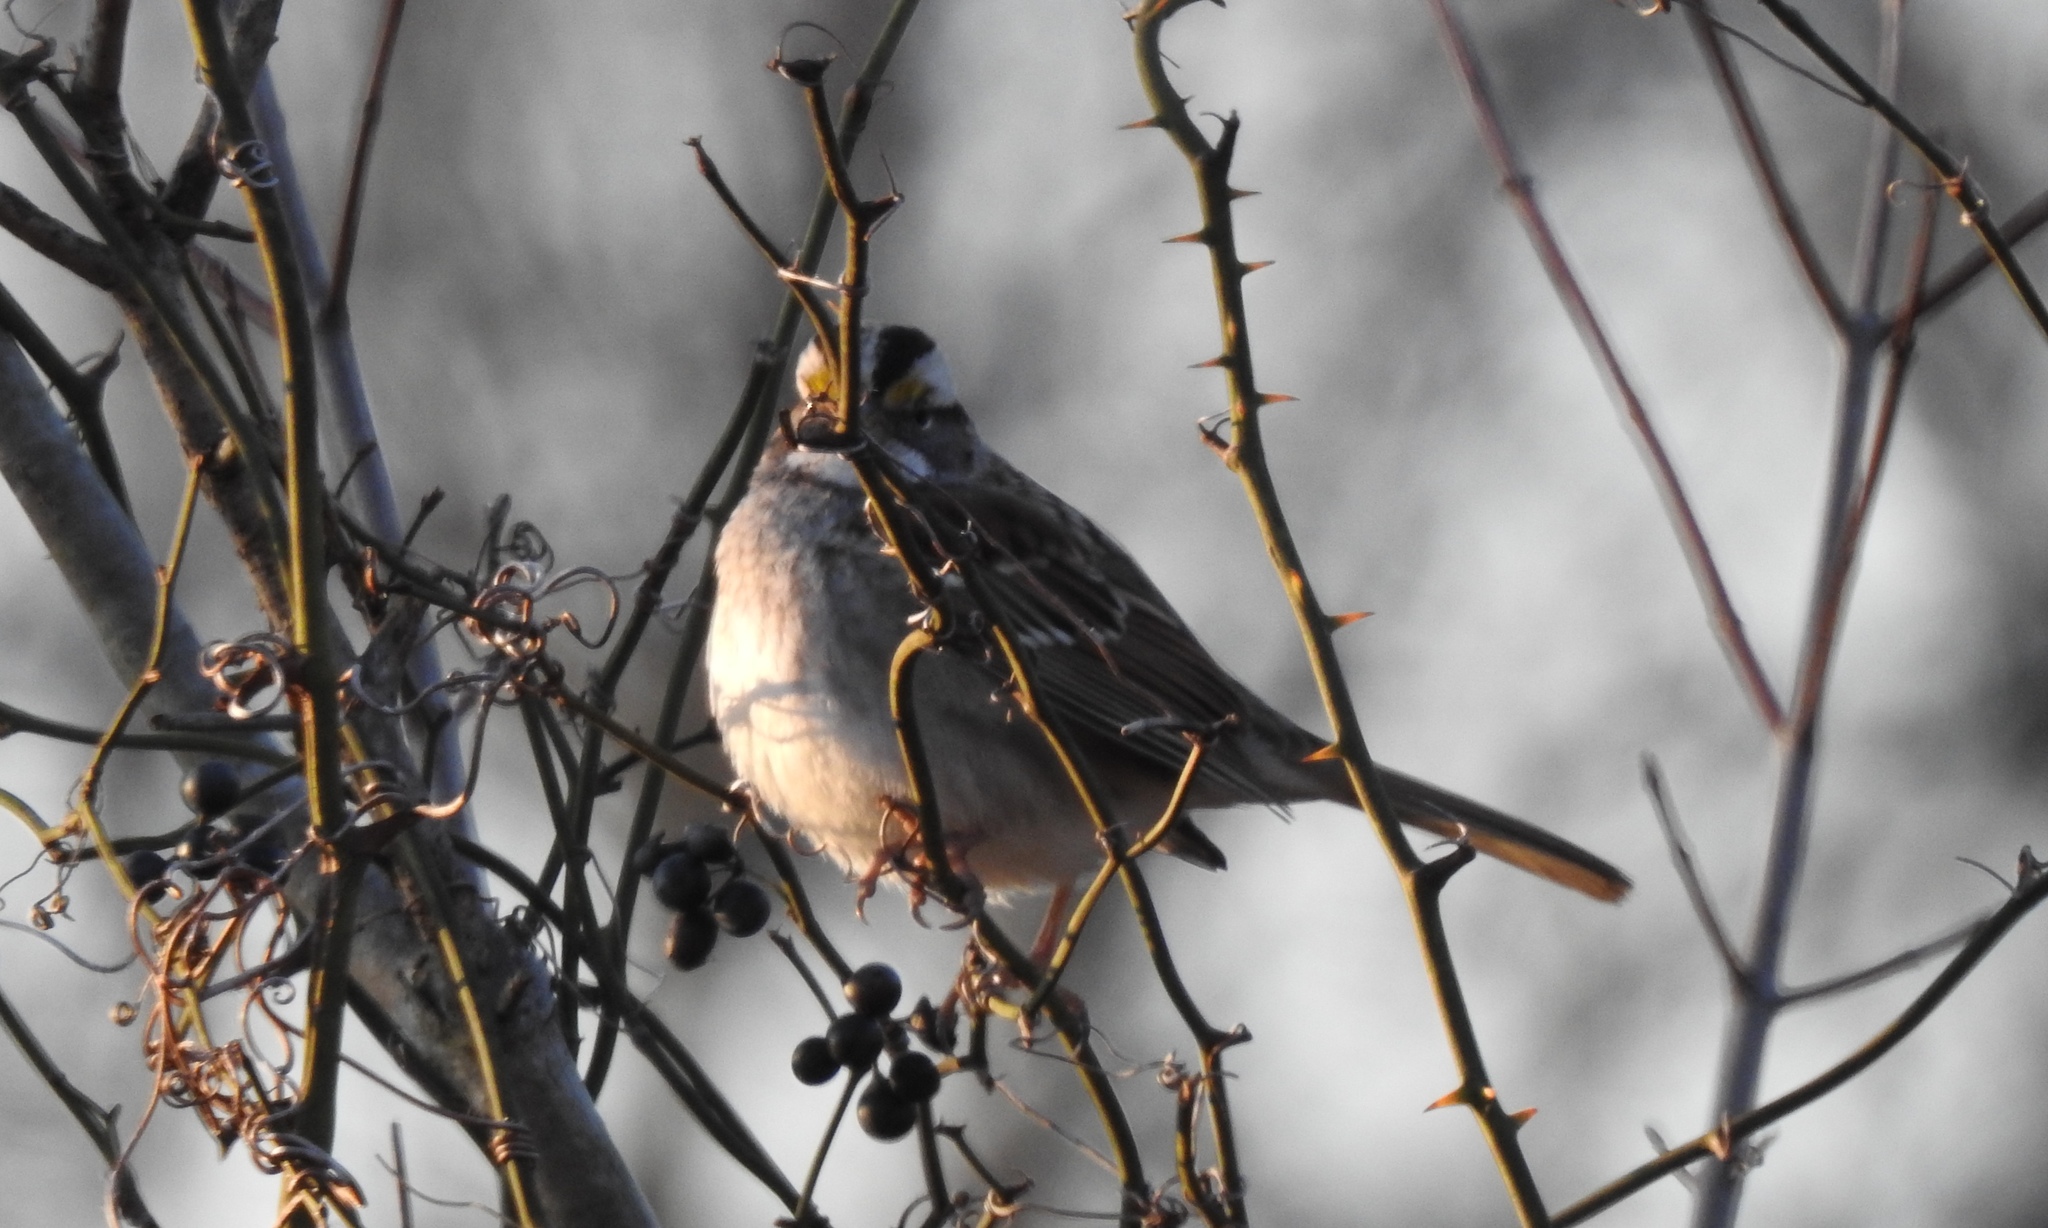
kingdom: Animalia
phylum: Chordata
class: Aves
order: Passeriformes
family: Passerellidae
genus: Zonotrichia
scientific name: Zonotrichia albicollis
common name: White-throated sparrow
